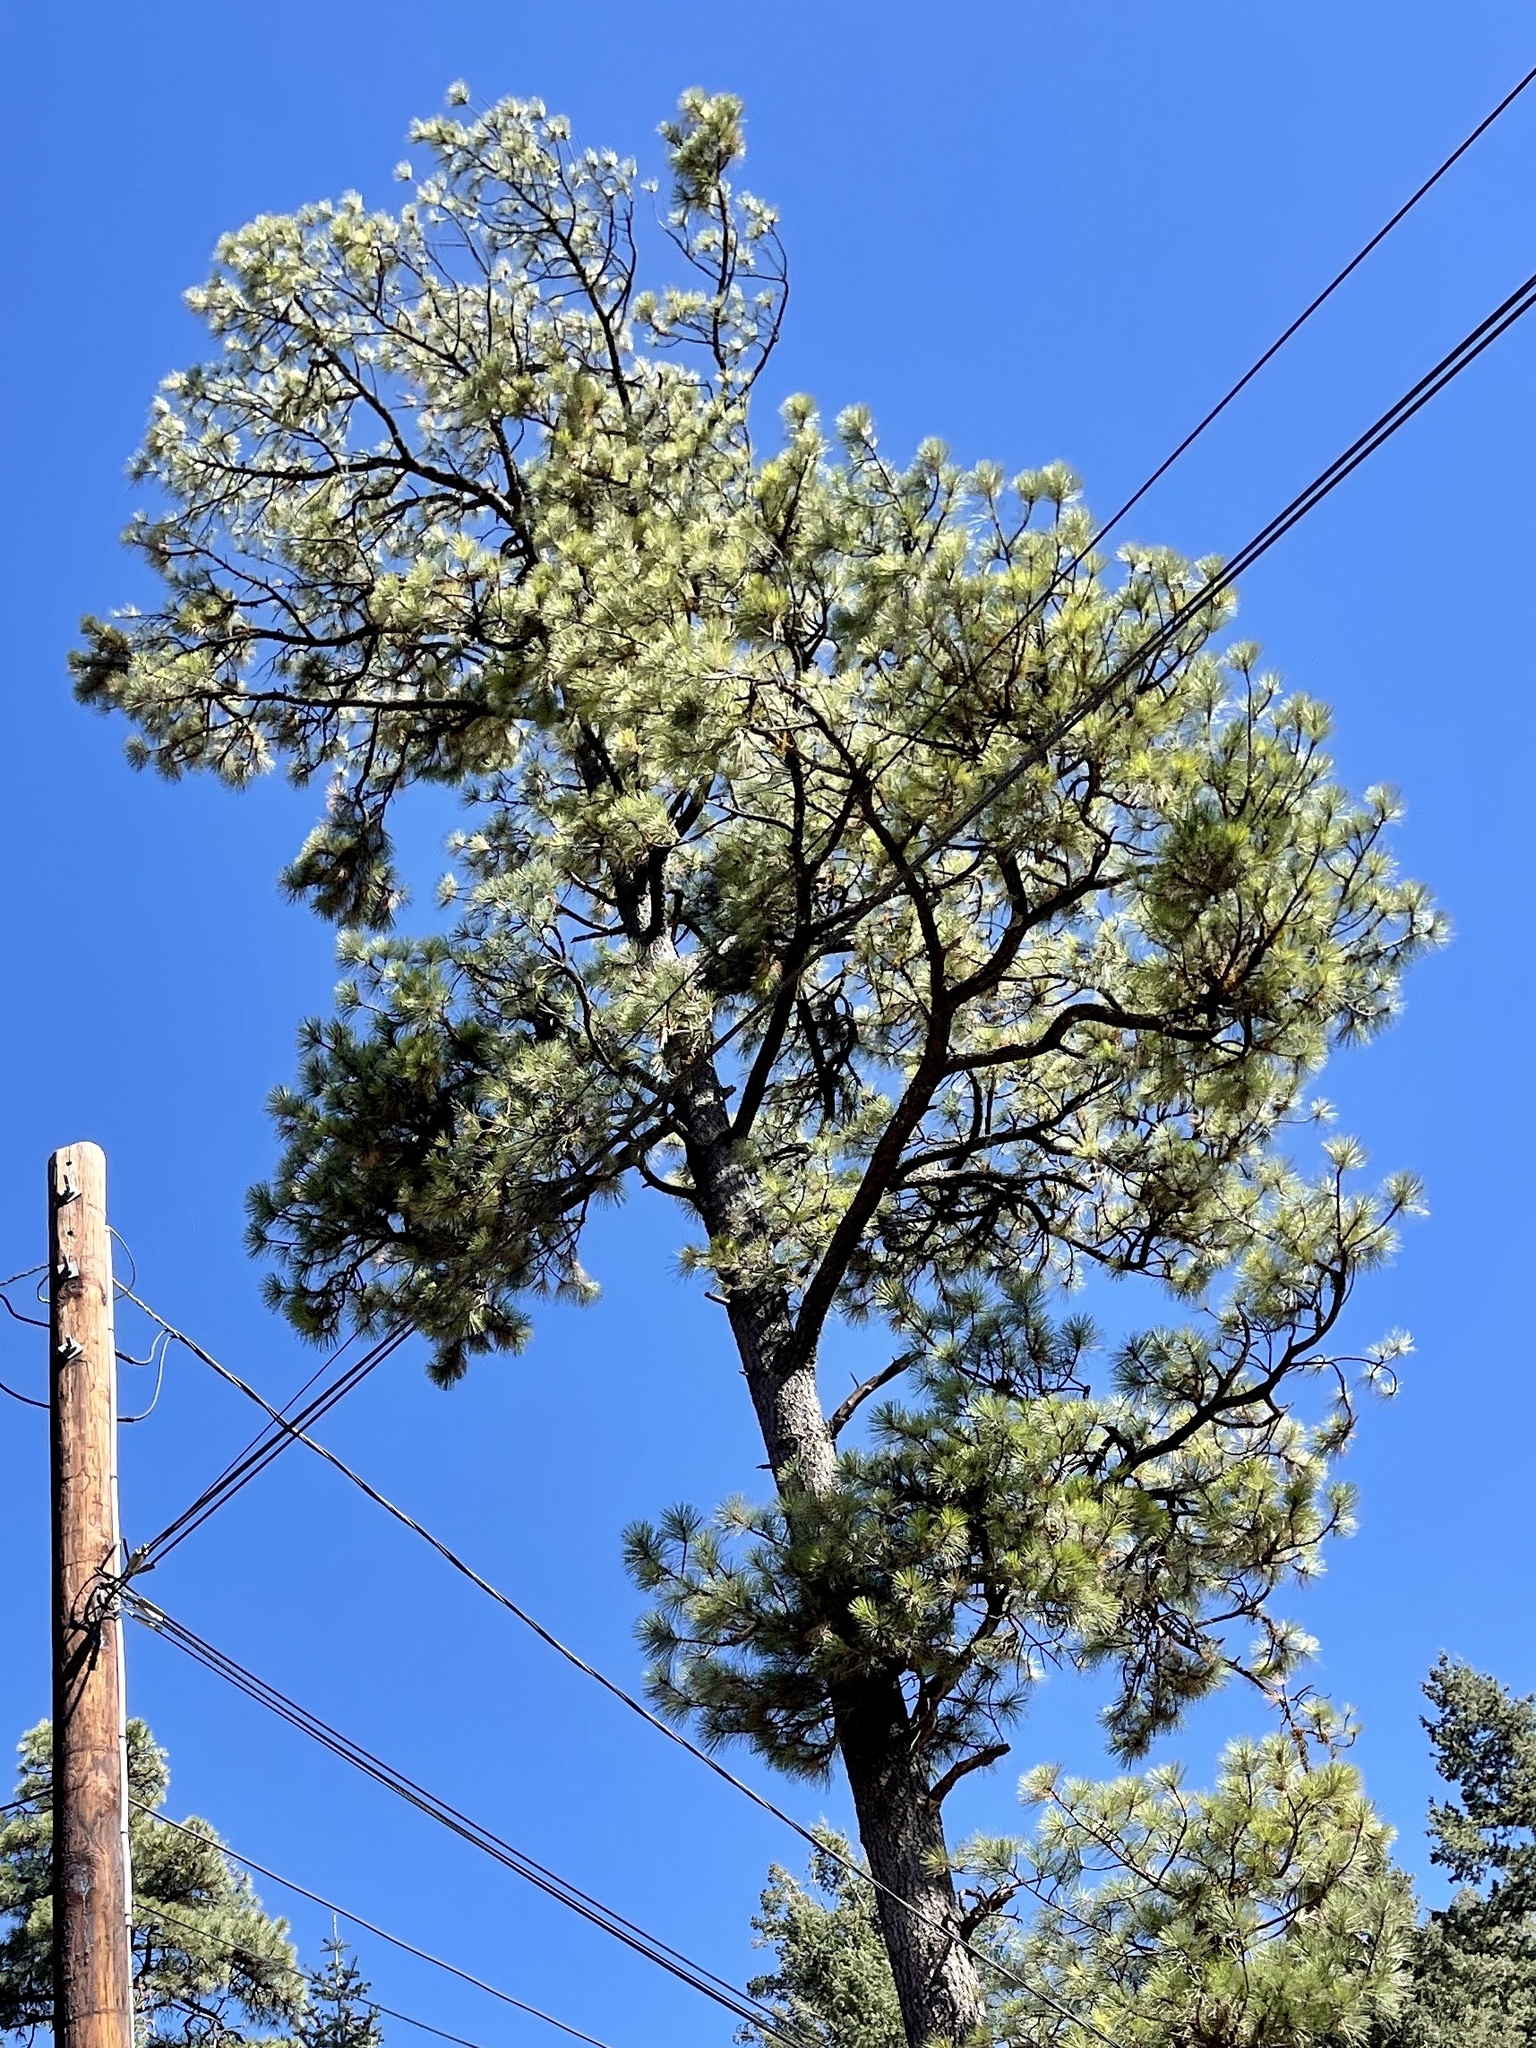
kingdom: Plantae
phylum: Tracheophyta
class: Pinopsida
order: Pinales
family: Pinaceae
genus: Pinus
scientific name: Pinus ponderosa
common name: Western yellow-pine
